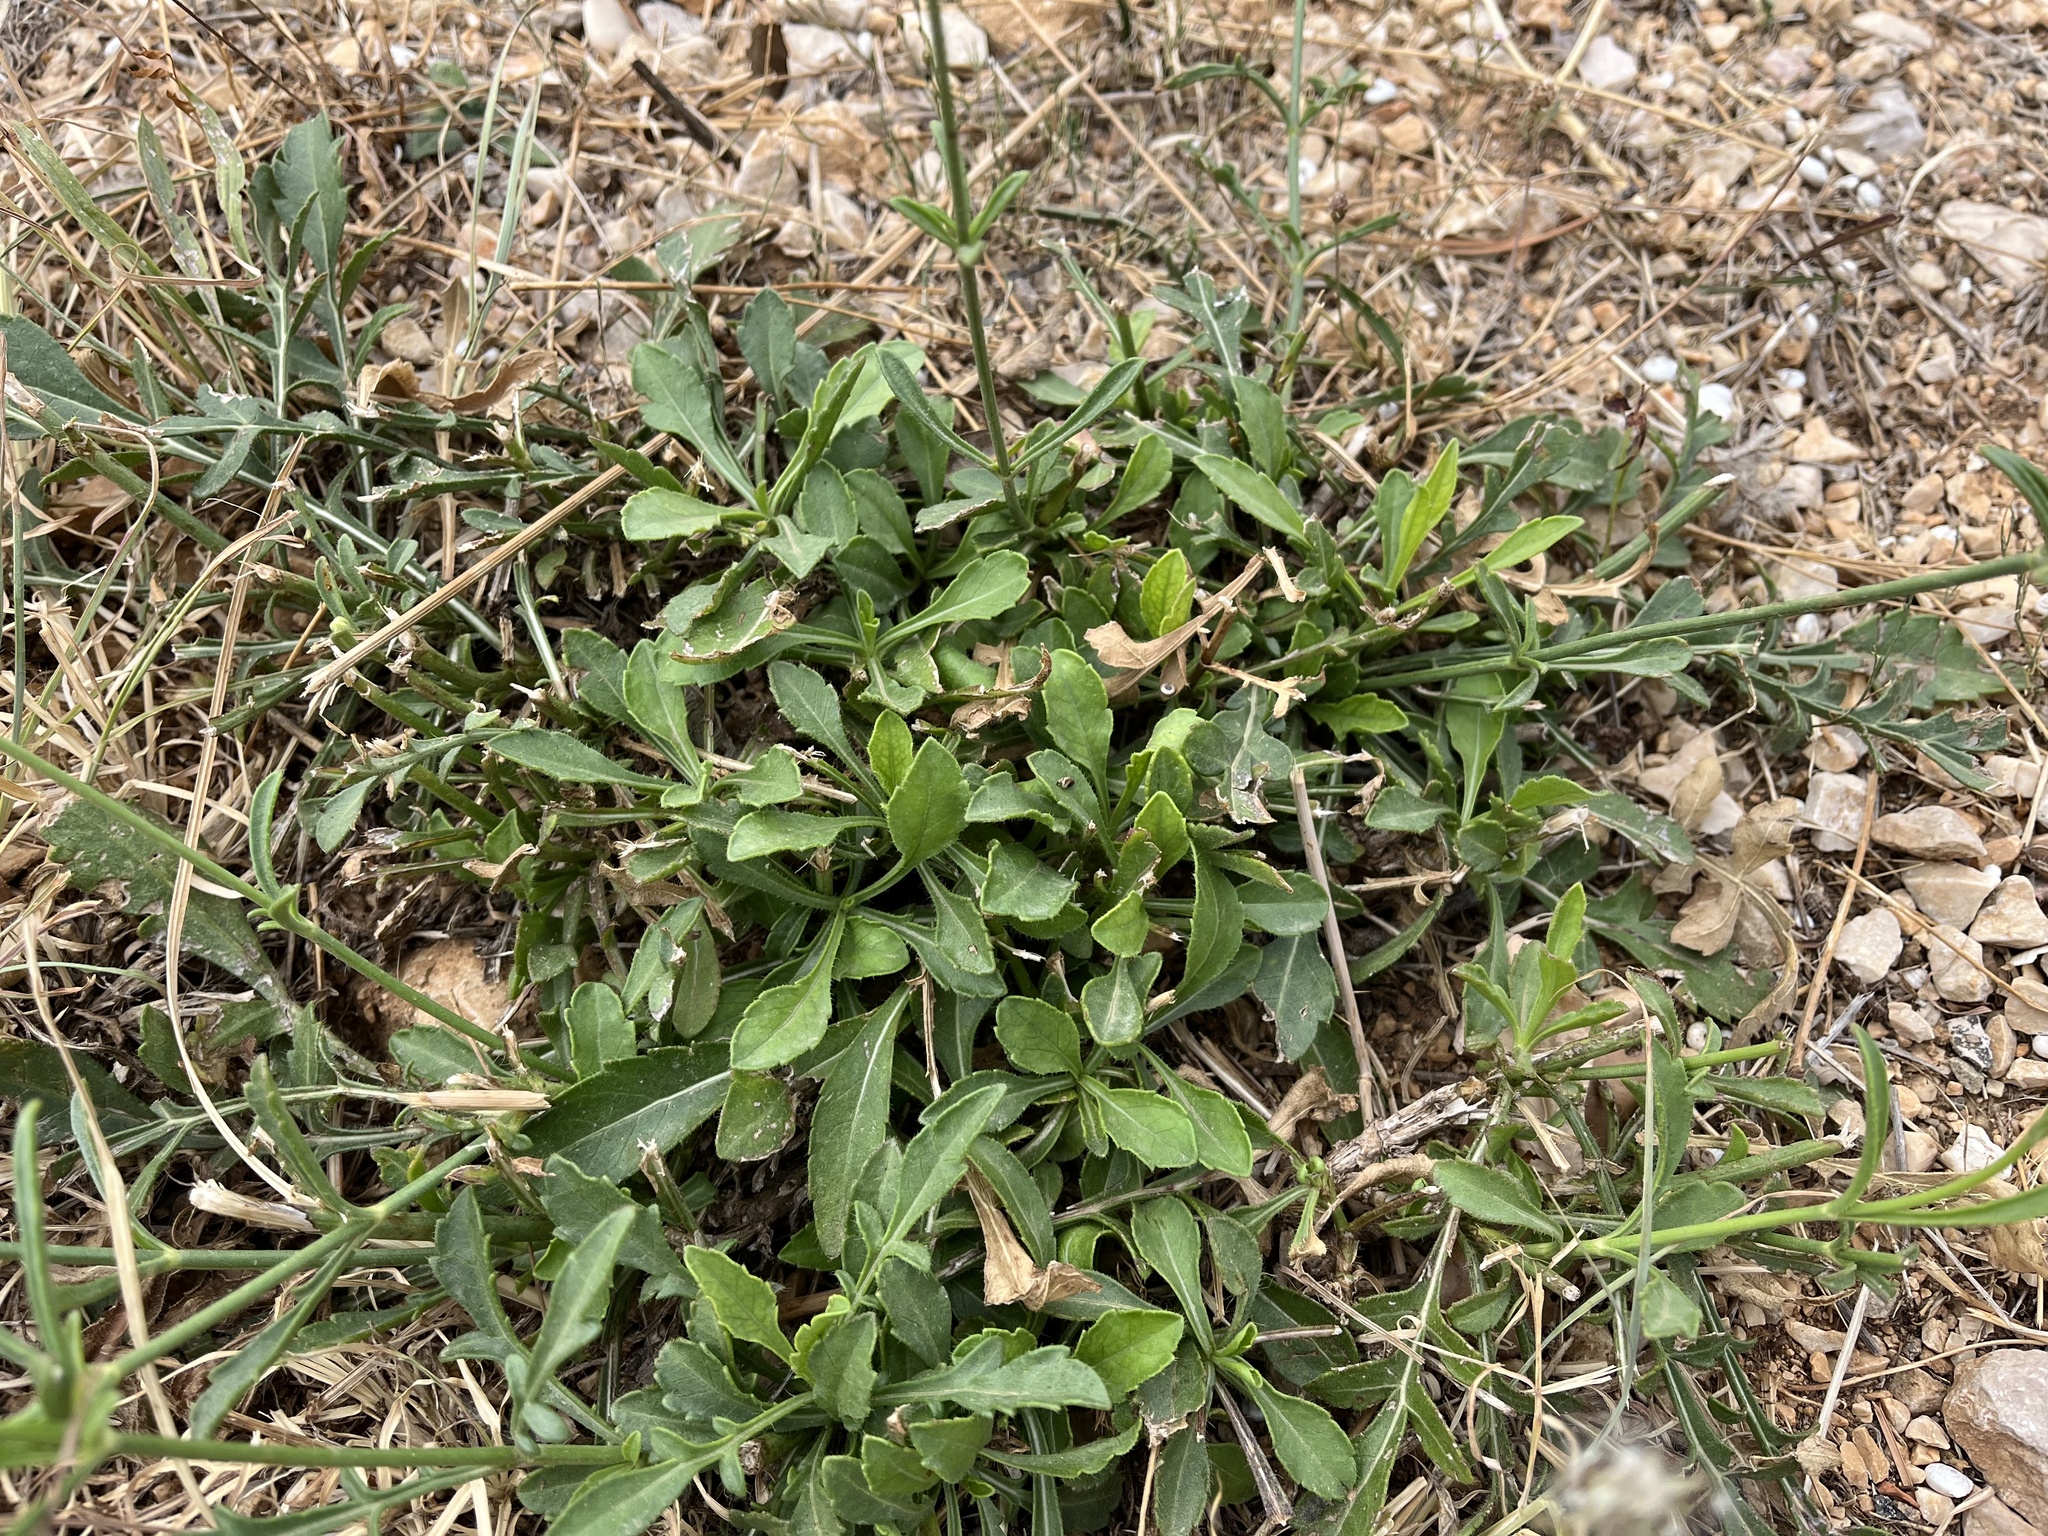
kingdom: Plantae
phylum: Tracheophyta
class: Magnoliopsida
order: Dipsacales
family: Caprifoliaceae
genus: Cephalaria
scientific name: Cephalaria leucantha
